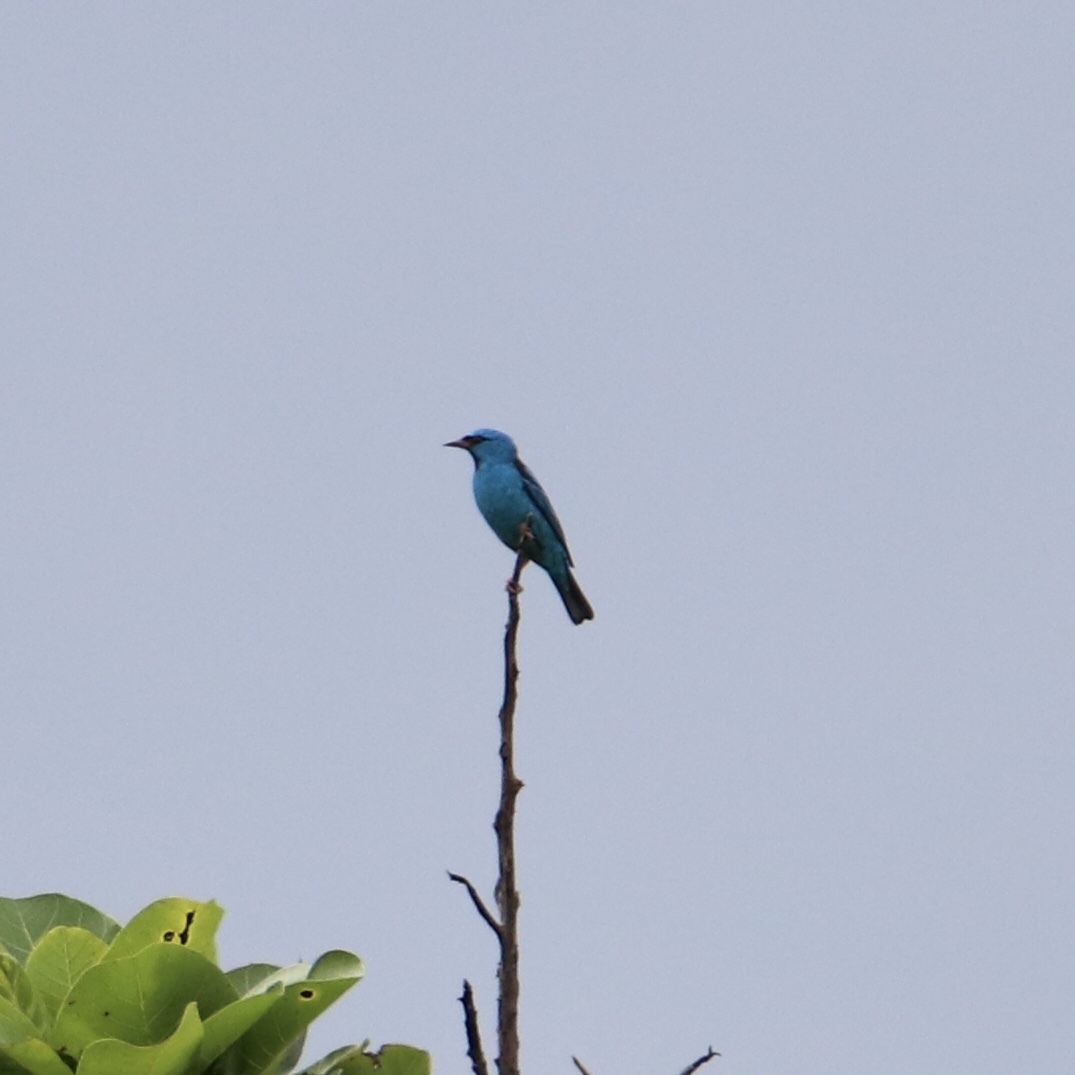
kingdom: Animalia
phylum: Chordata
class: Aves
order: Passeriformes
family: Thraupidae
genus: Dacnis
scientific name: Dacnis cayana
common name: Blue dacnis
